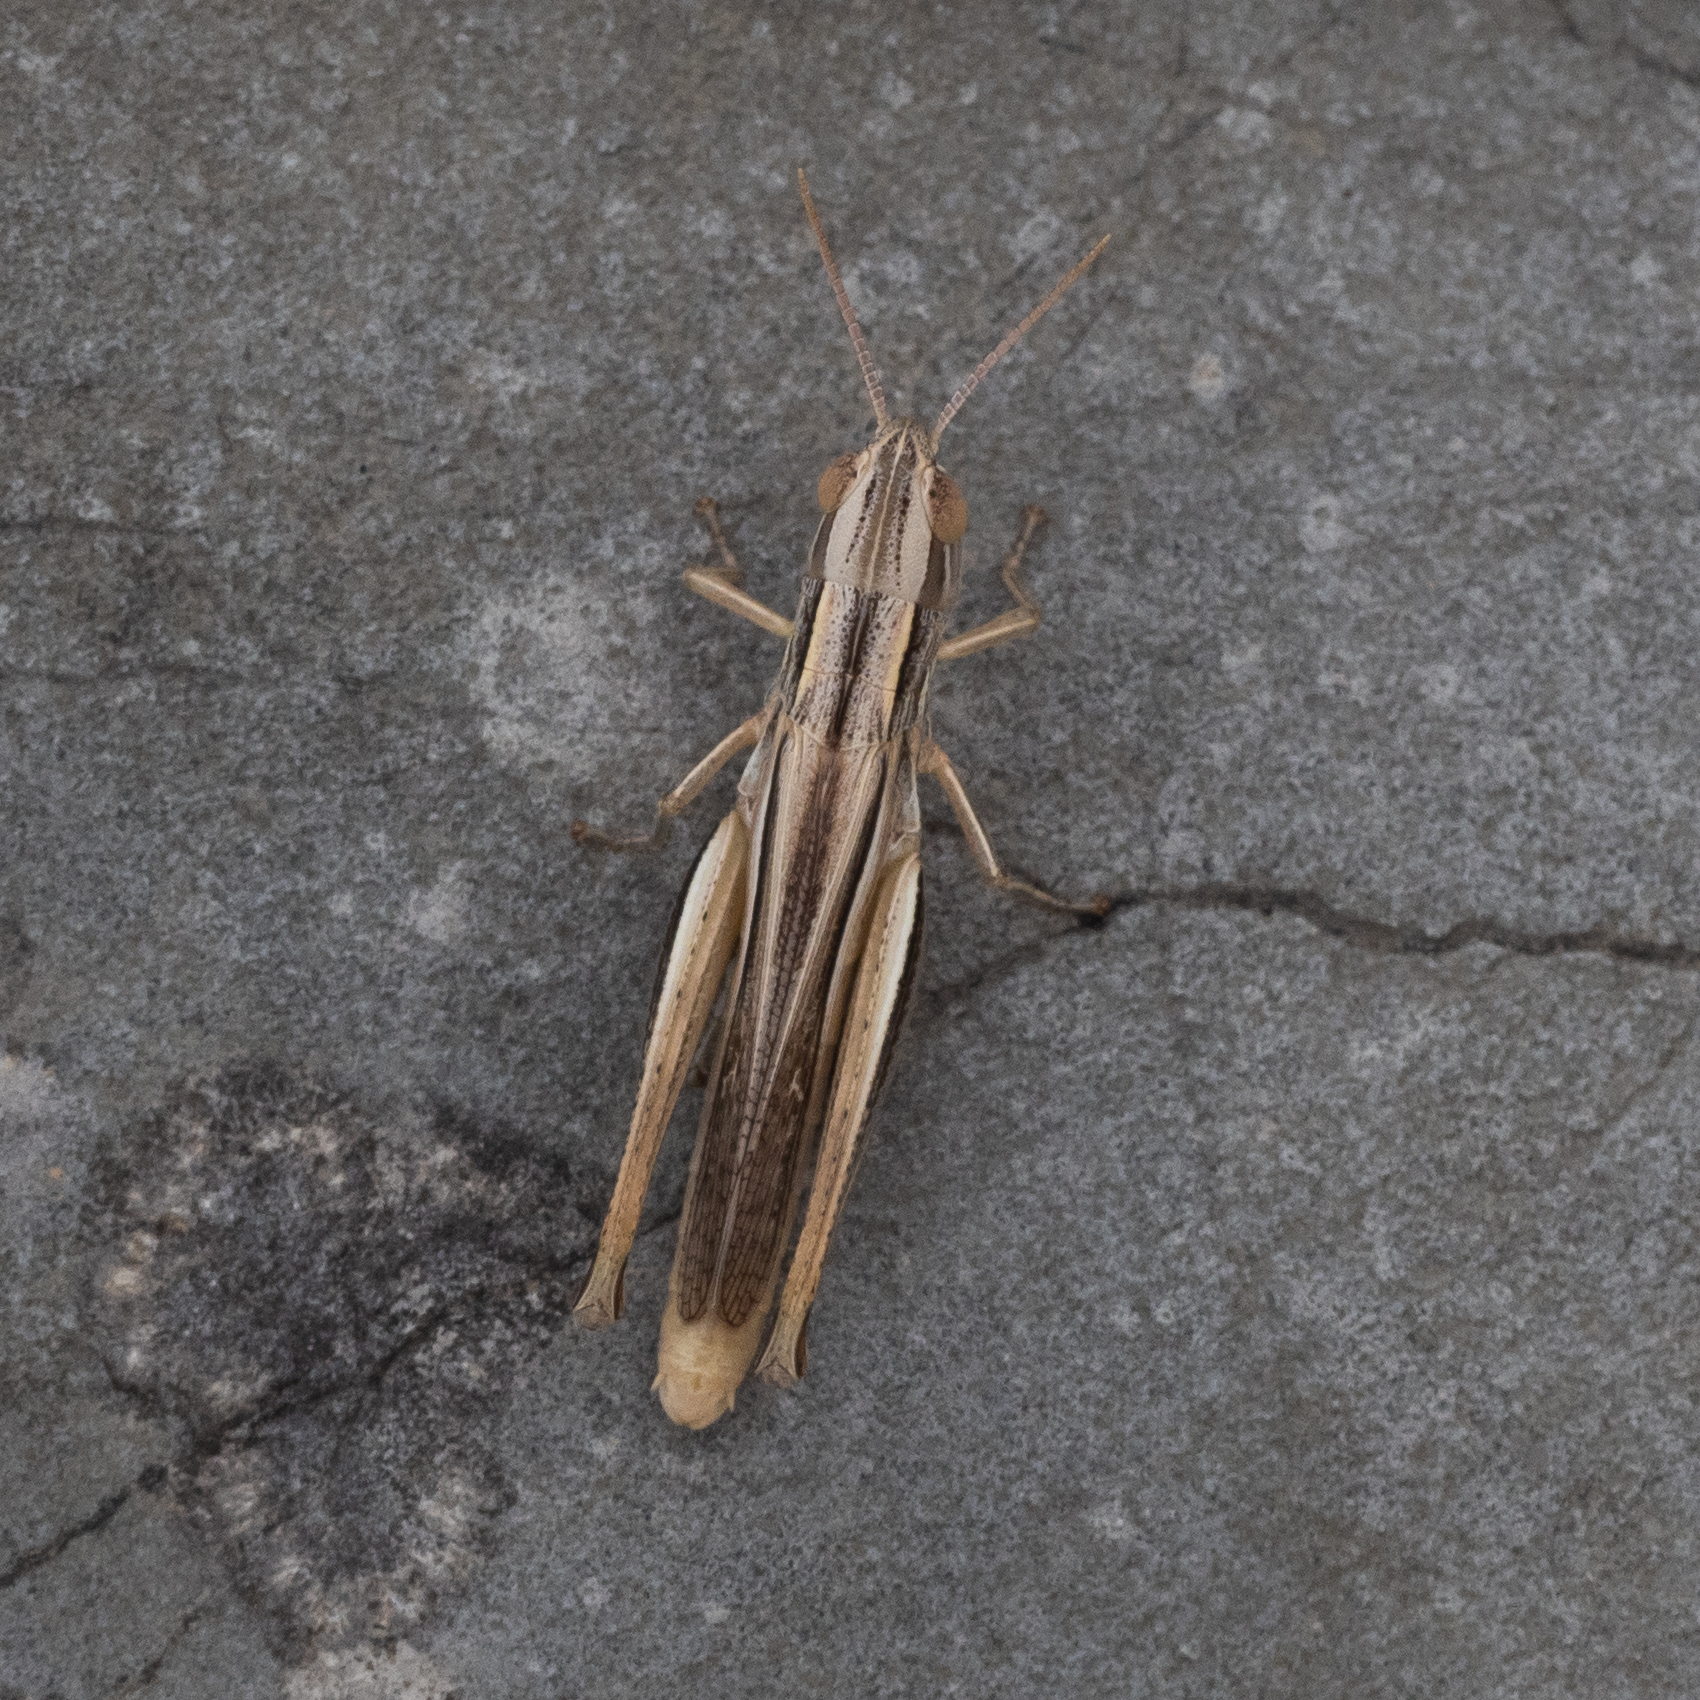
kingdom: Animalia
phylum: Arthropoda
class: Insecta
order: Orthoptera
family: Acrididae
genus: Euchorthippus
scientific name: Euchorthippus declivus
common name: Common straw grasshopper
